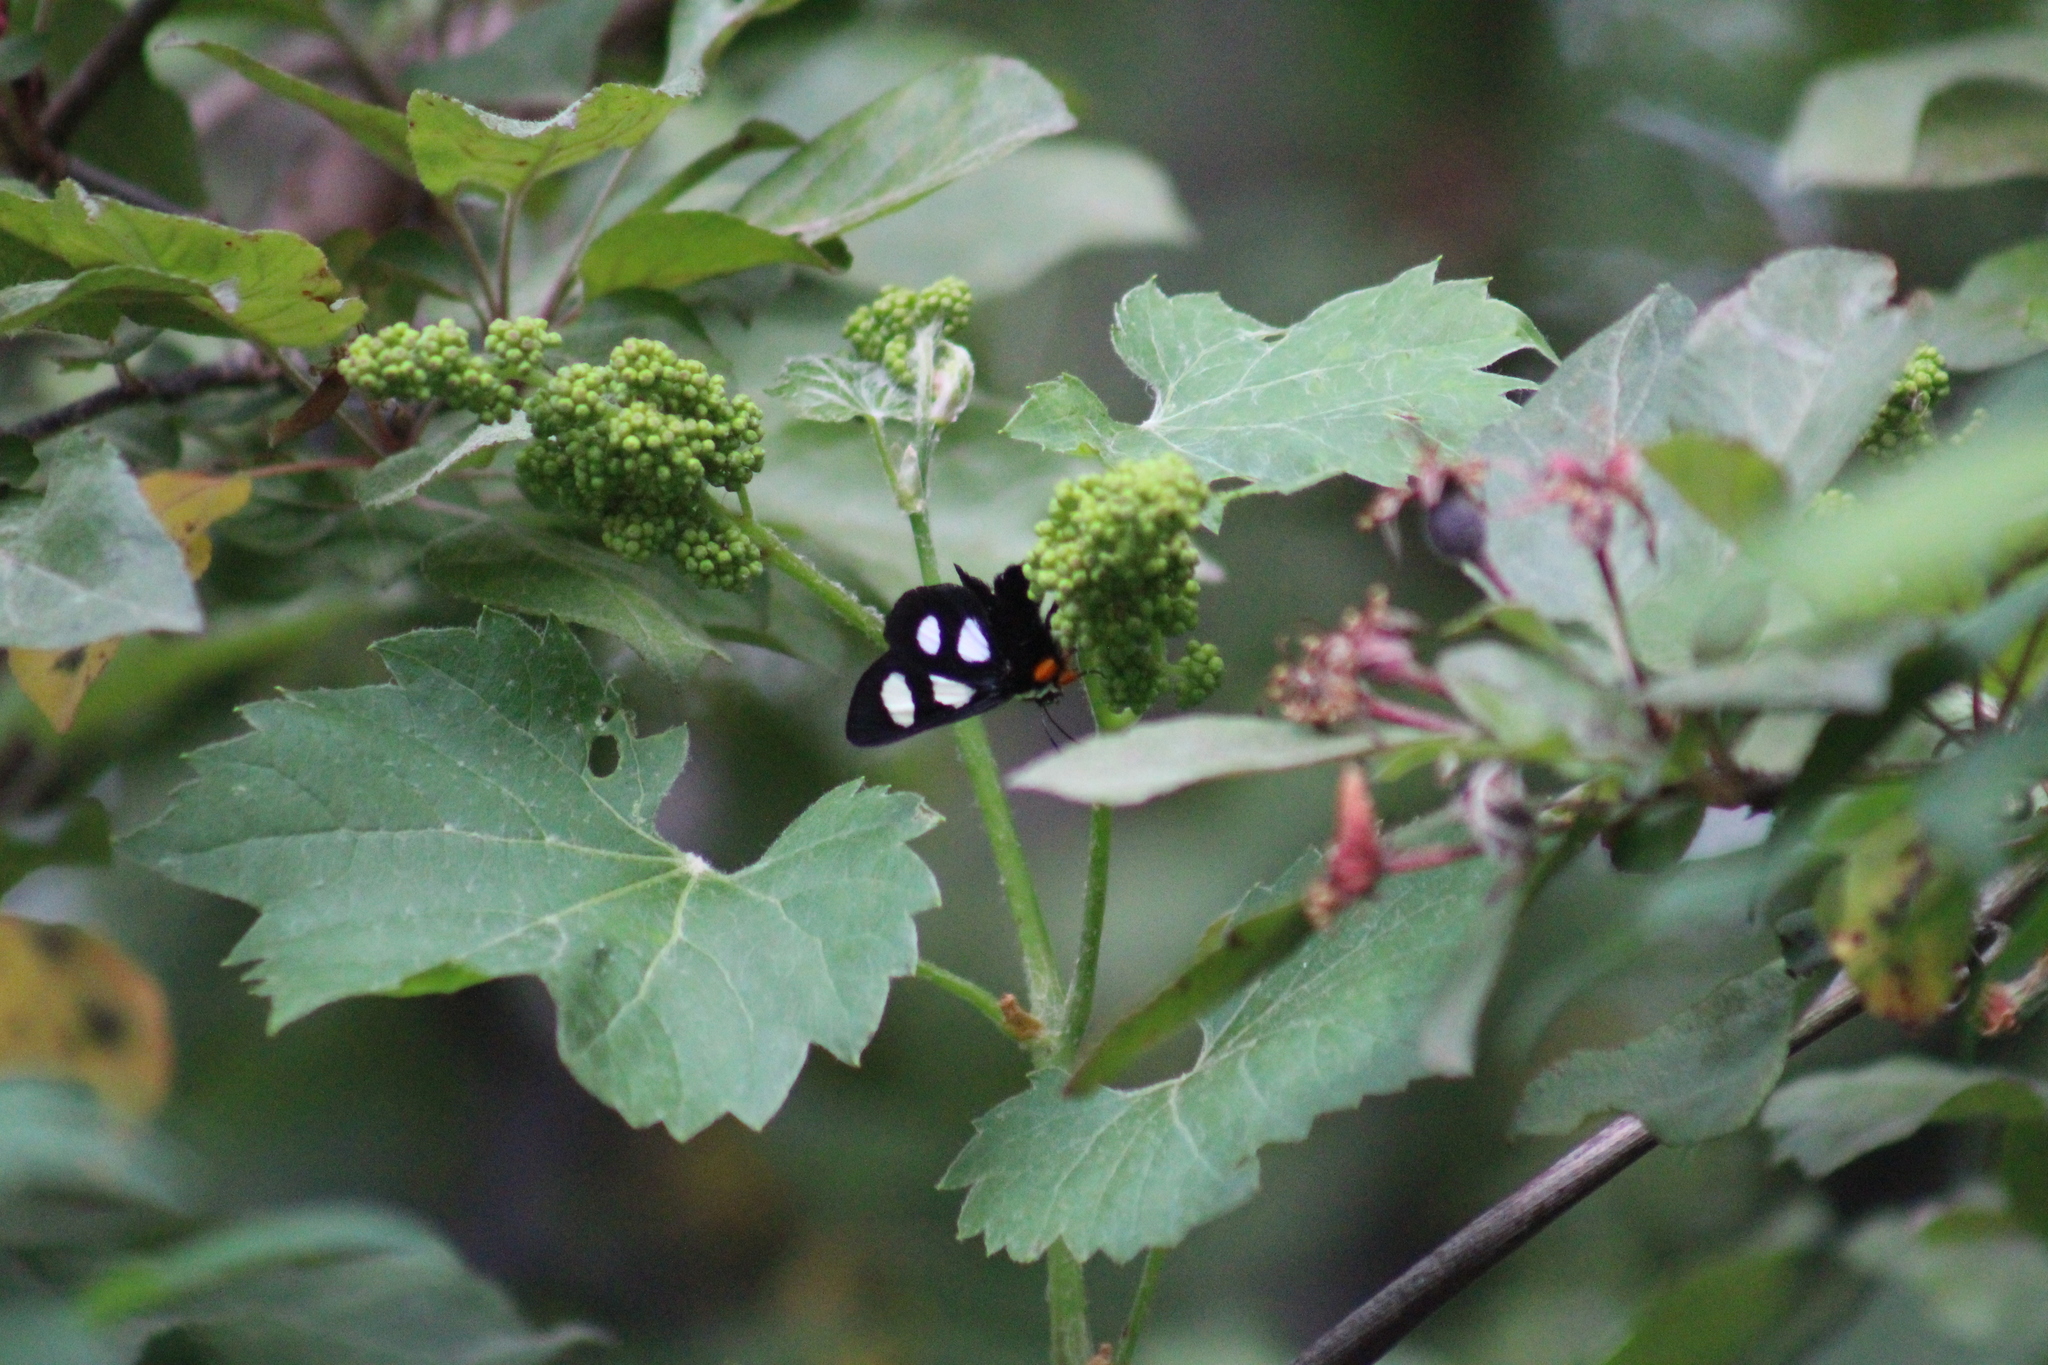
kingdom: Animalia
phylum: Arthropoda
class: Insecta
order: Lepidoptera
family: Noctuidae
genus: Alypia
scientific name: Alypia octomaculata
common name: Eight-spotted forester
